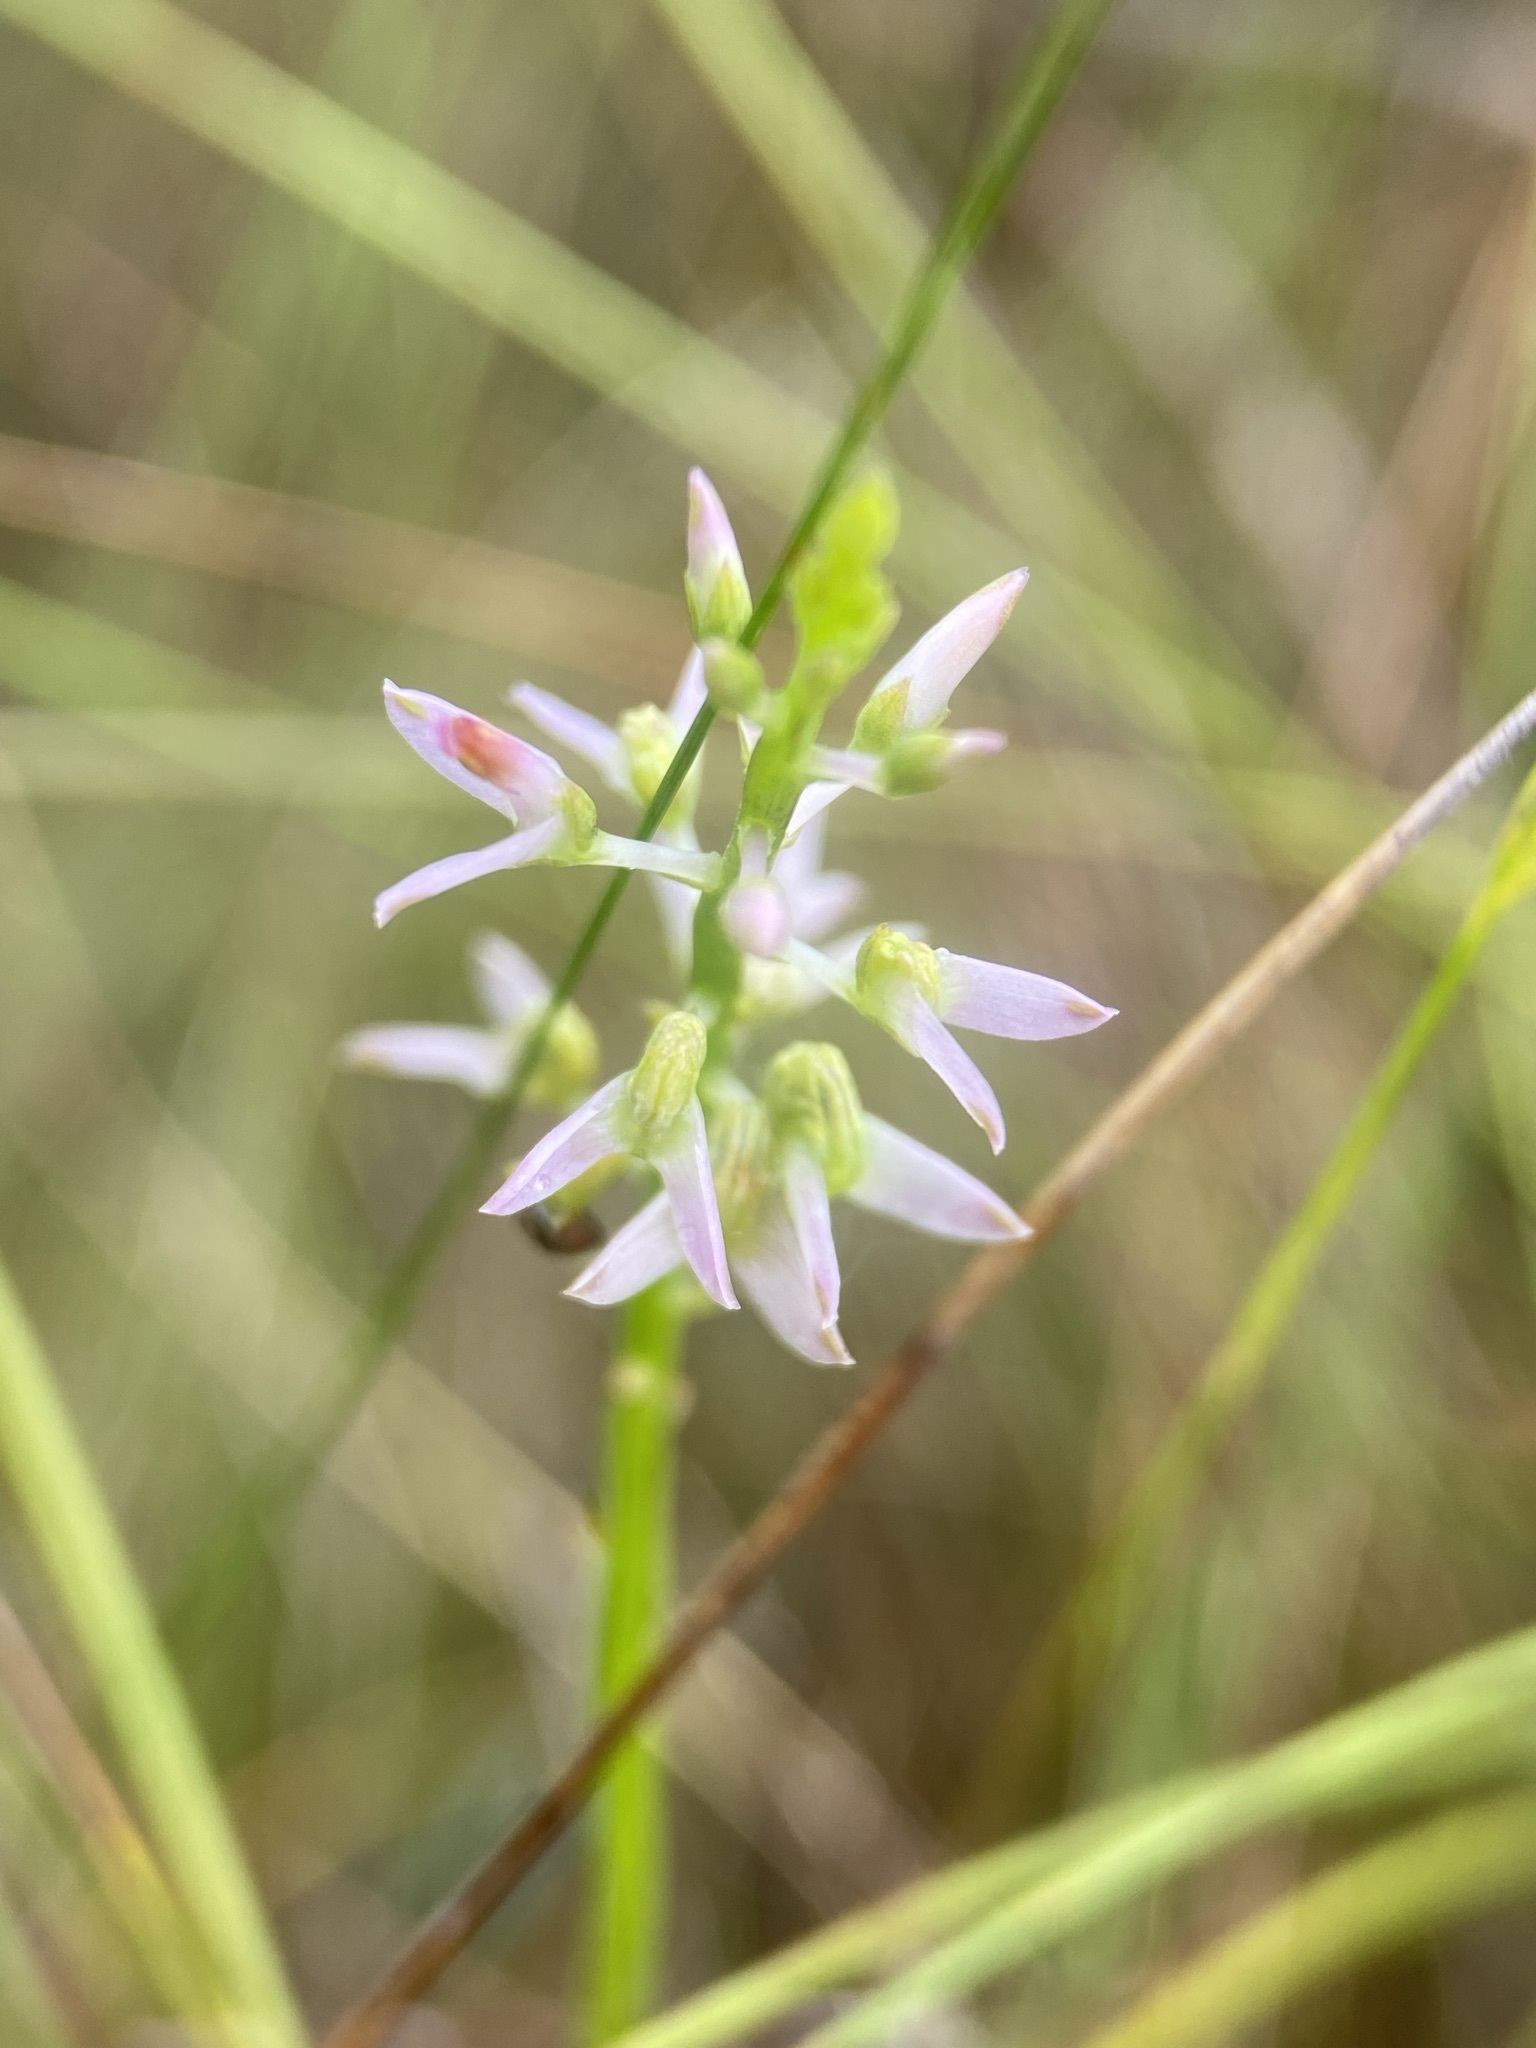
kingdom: Plantae
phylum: Tracheophyta
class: Magnoliopsida
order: Fabales
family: Polygalaceae
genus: Polygala
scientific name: Polygala hookeri
